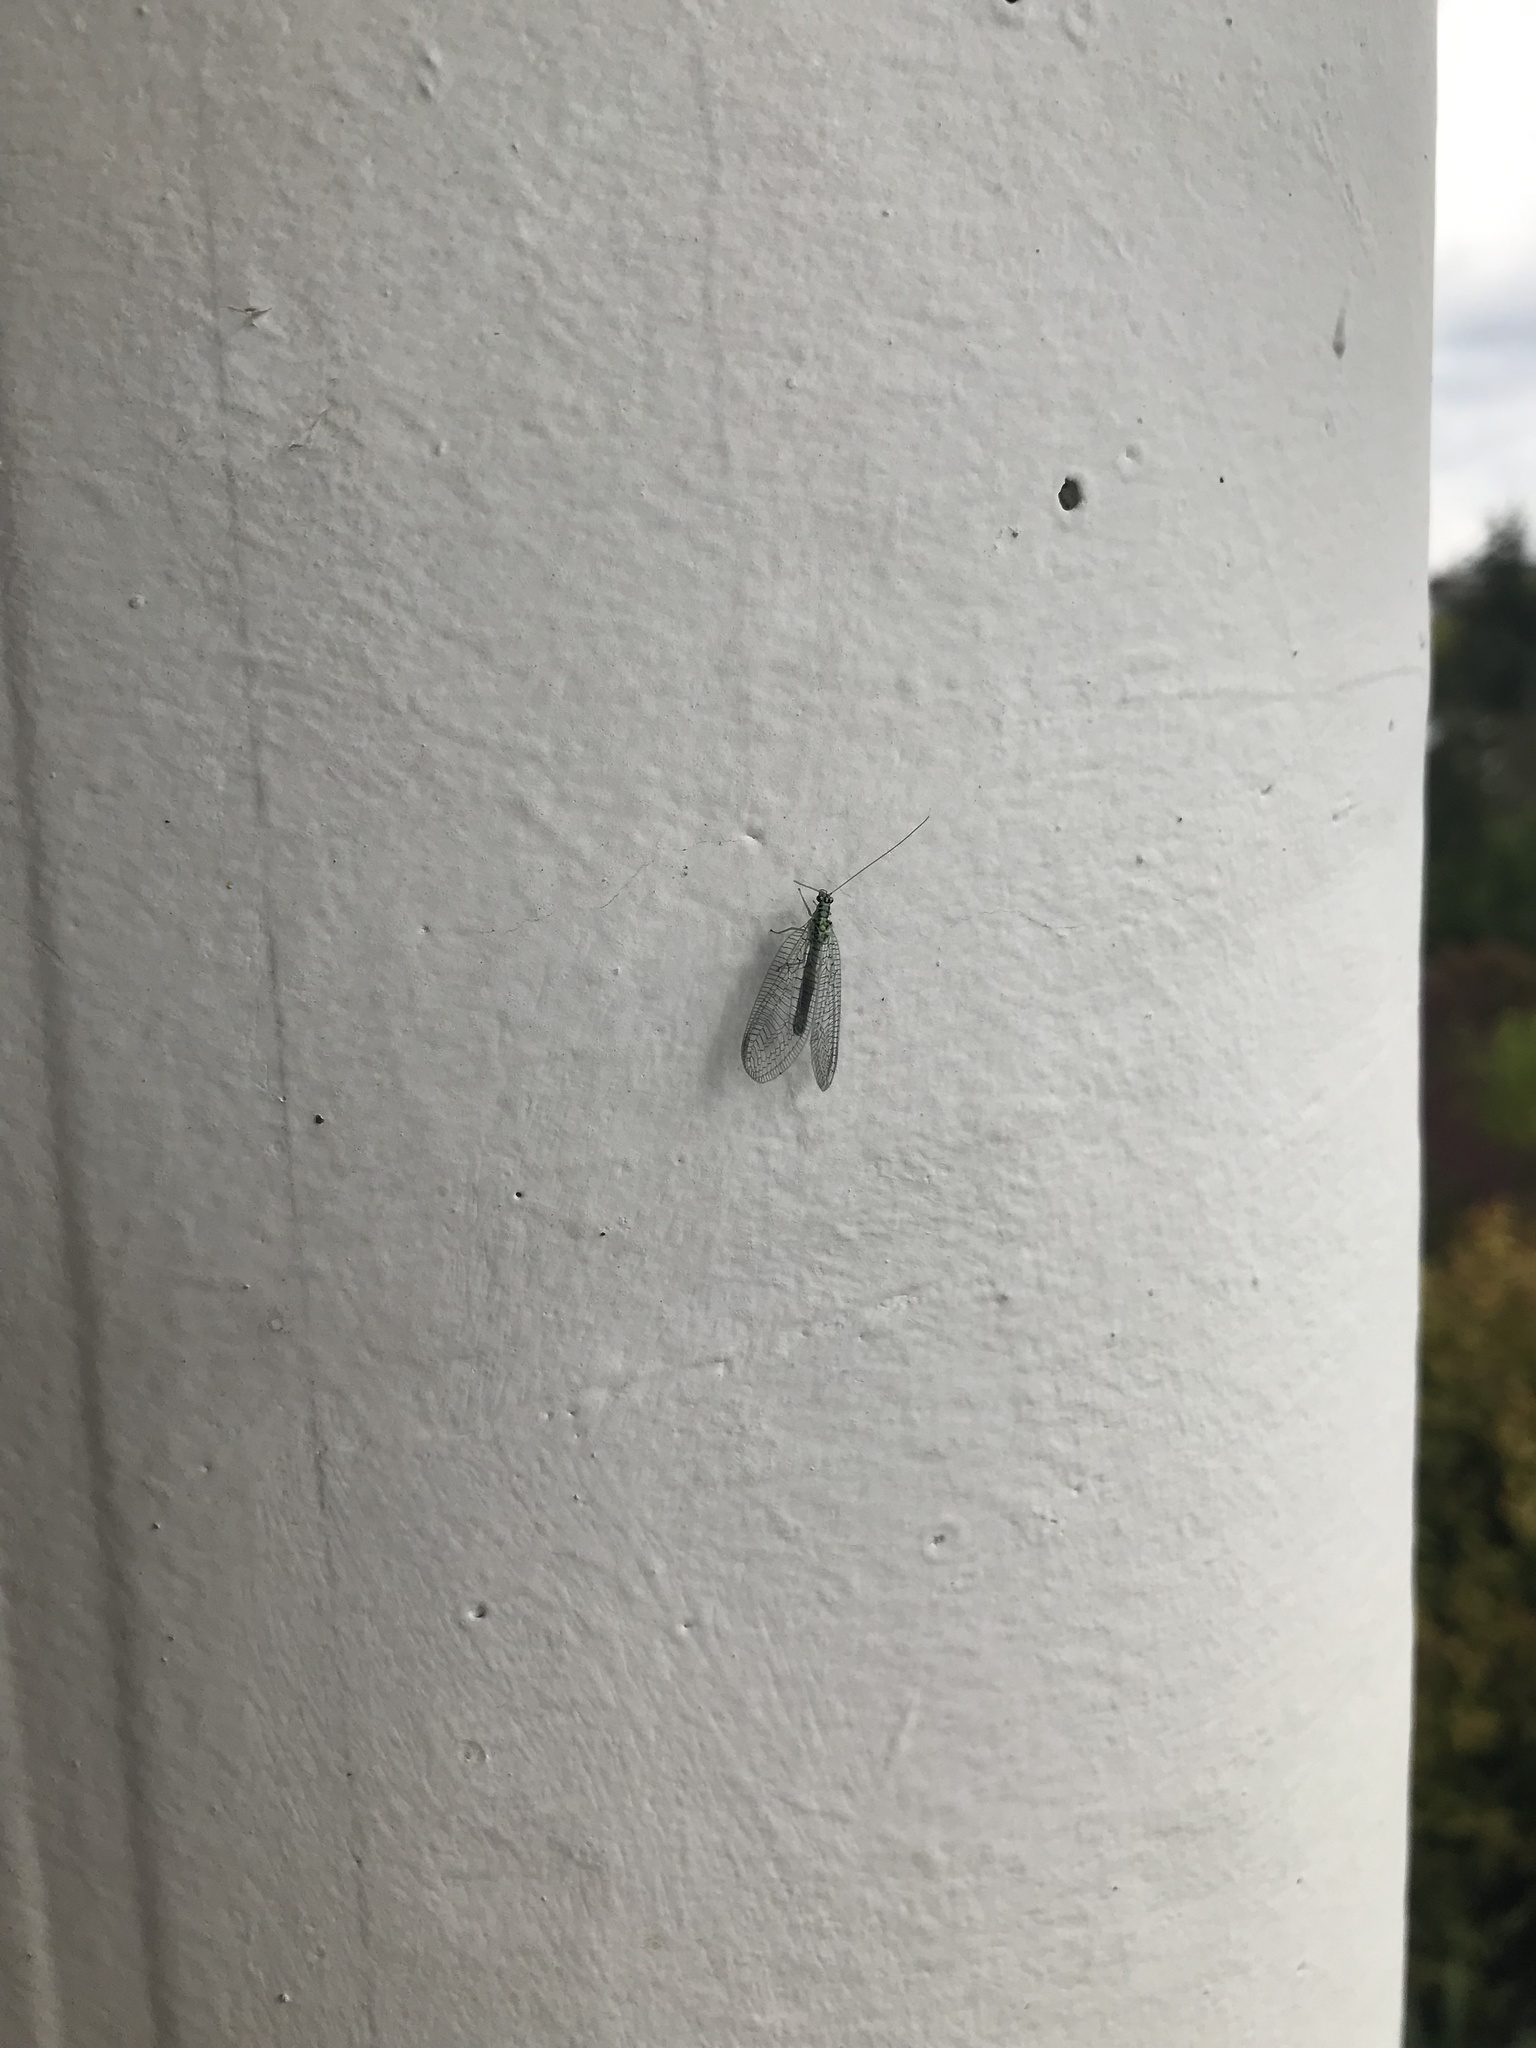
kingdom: Animalia
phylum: Arthropoda
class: Insecta
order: Neuroptera
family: Chrysopidae
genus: Chrysopa
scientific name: Chrysopa perla
